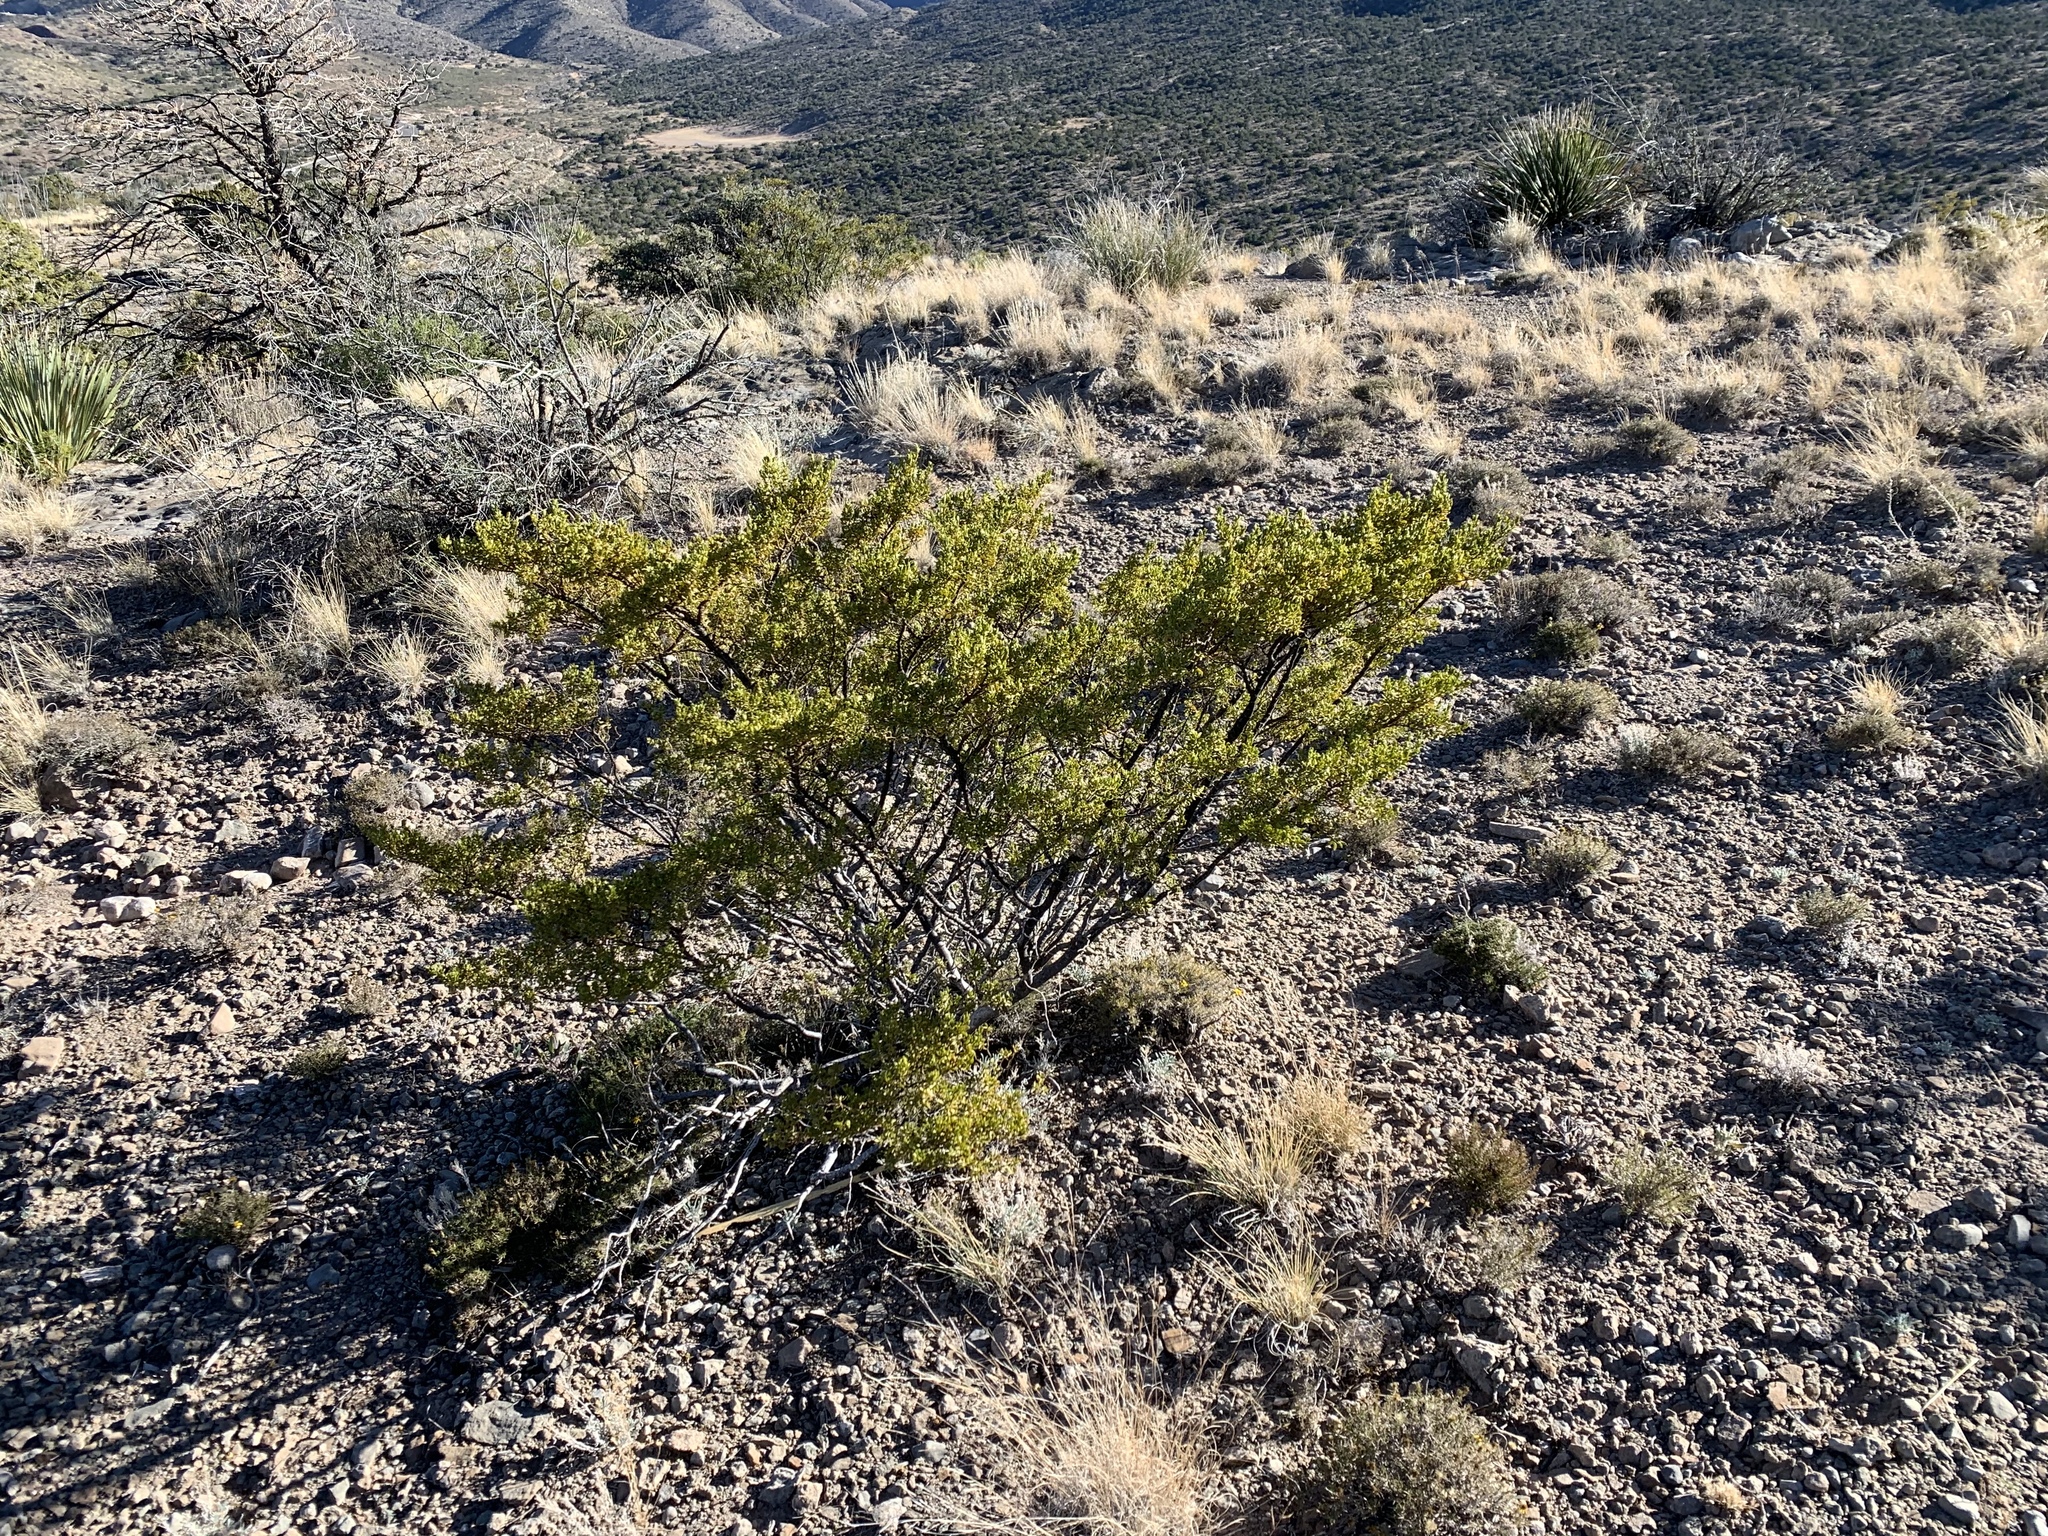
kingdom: Plantae
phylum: Tracheophyta
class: Magnoliopsida
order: Zygophyllales
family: Zygophyllaceae
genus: Larrea
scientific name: Larrea tridentata
